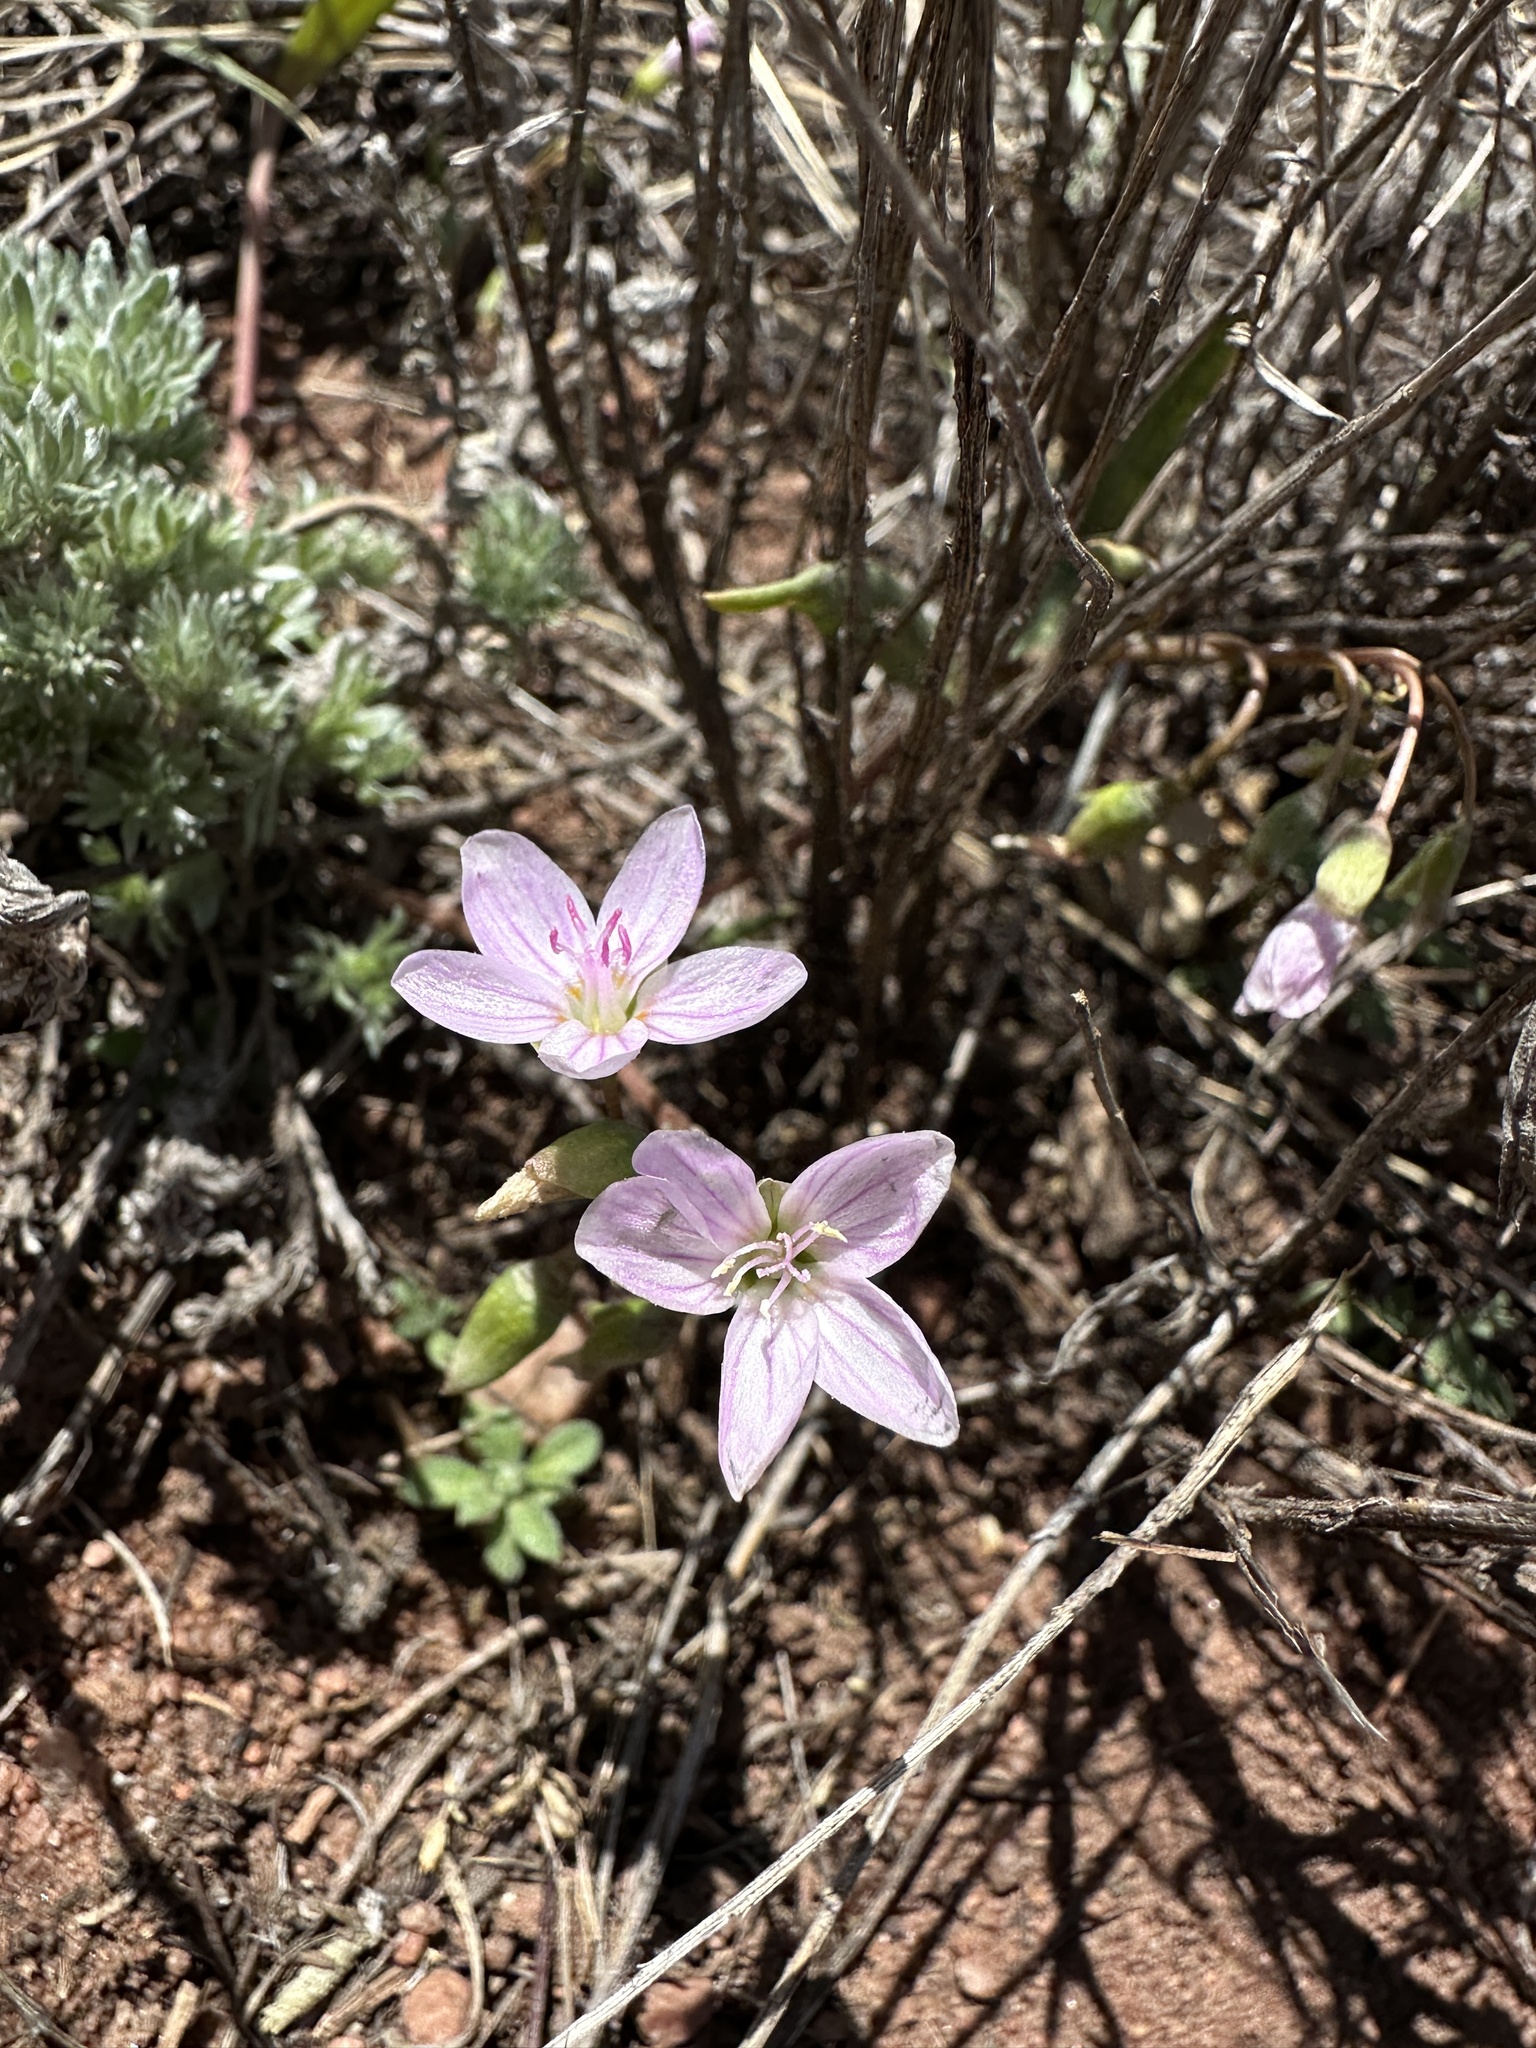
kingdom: Plantae
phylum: Tracheophyta
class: Magnoliopsida
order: Caryophyllales
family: Montiaceae
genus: Claytonia
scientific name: Claytonia rosea
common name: Rocky mountain spring-beauty
